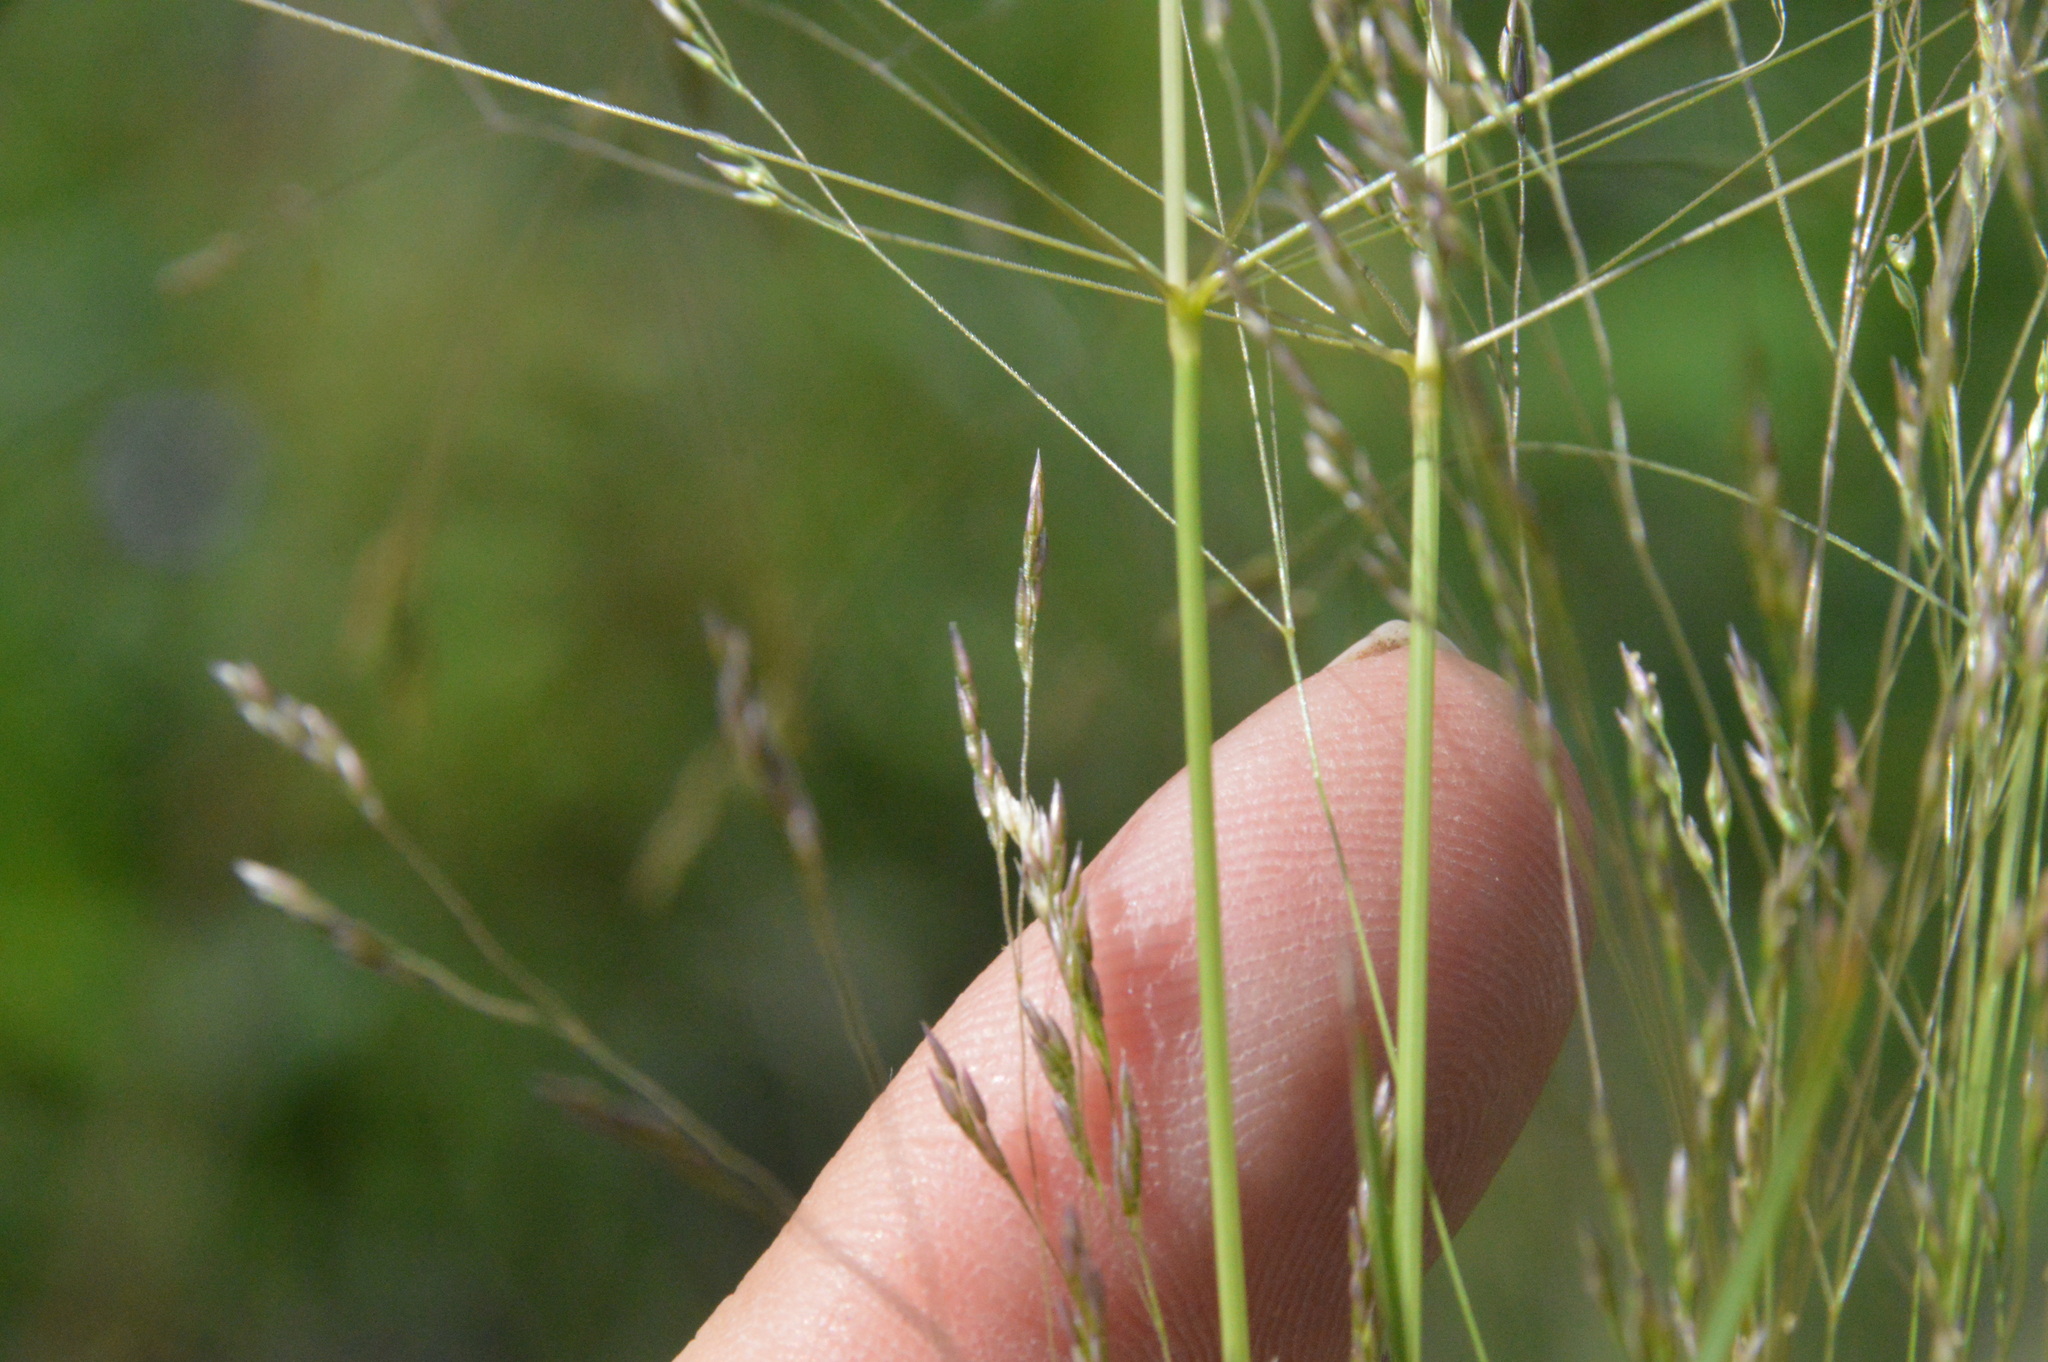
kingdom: Plantae
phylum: Tracheophyta
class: Liliopsida
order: Poales
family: Poaceae
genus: Agrostis
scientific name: Agrostis hyemalis
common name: Small bent
